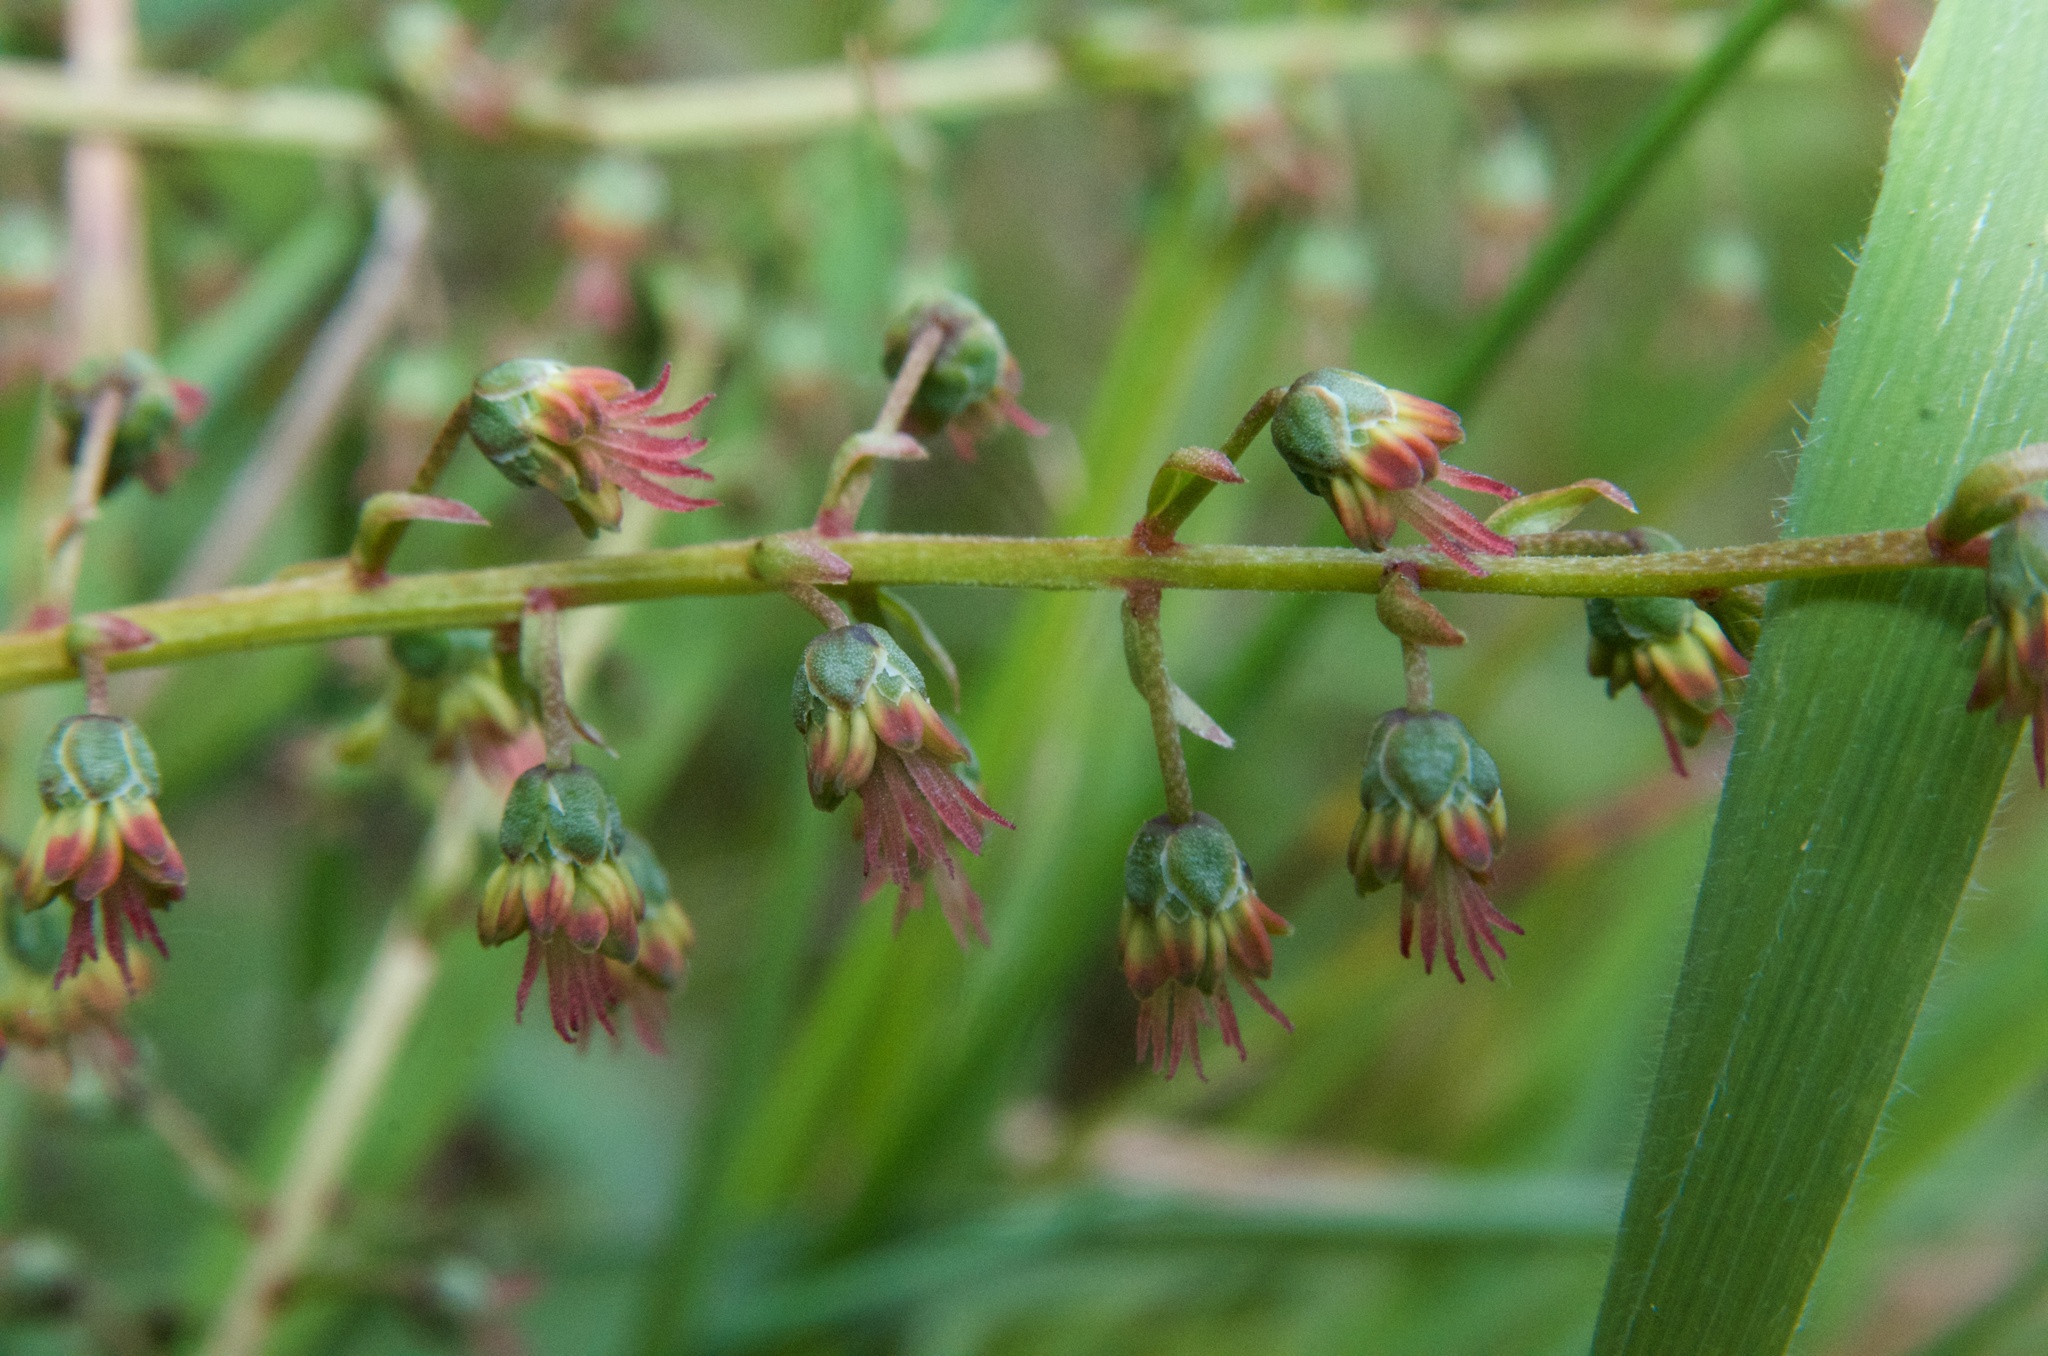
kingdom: Plantae
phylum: Tracheophyta
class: Magnoliopsida
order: Cucurbitales
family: Coriariaceae
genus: Coriaria
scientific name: Coriaria sarmentosa
